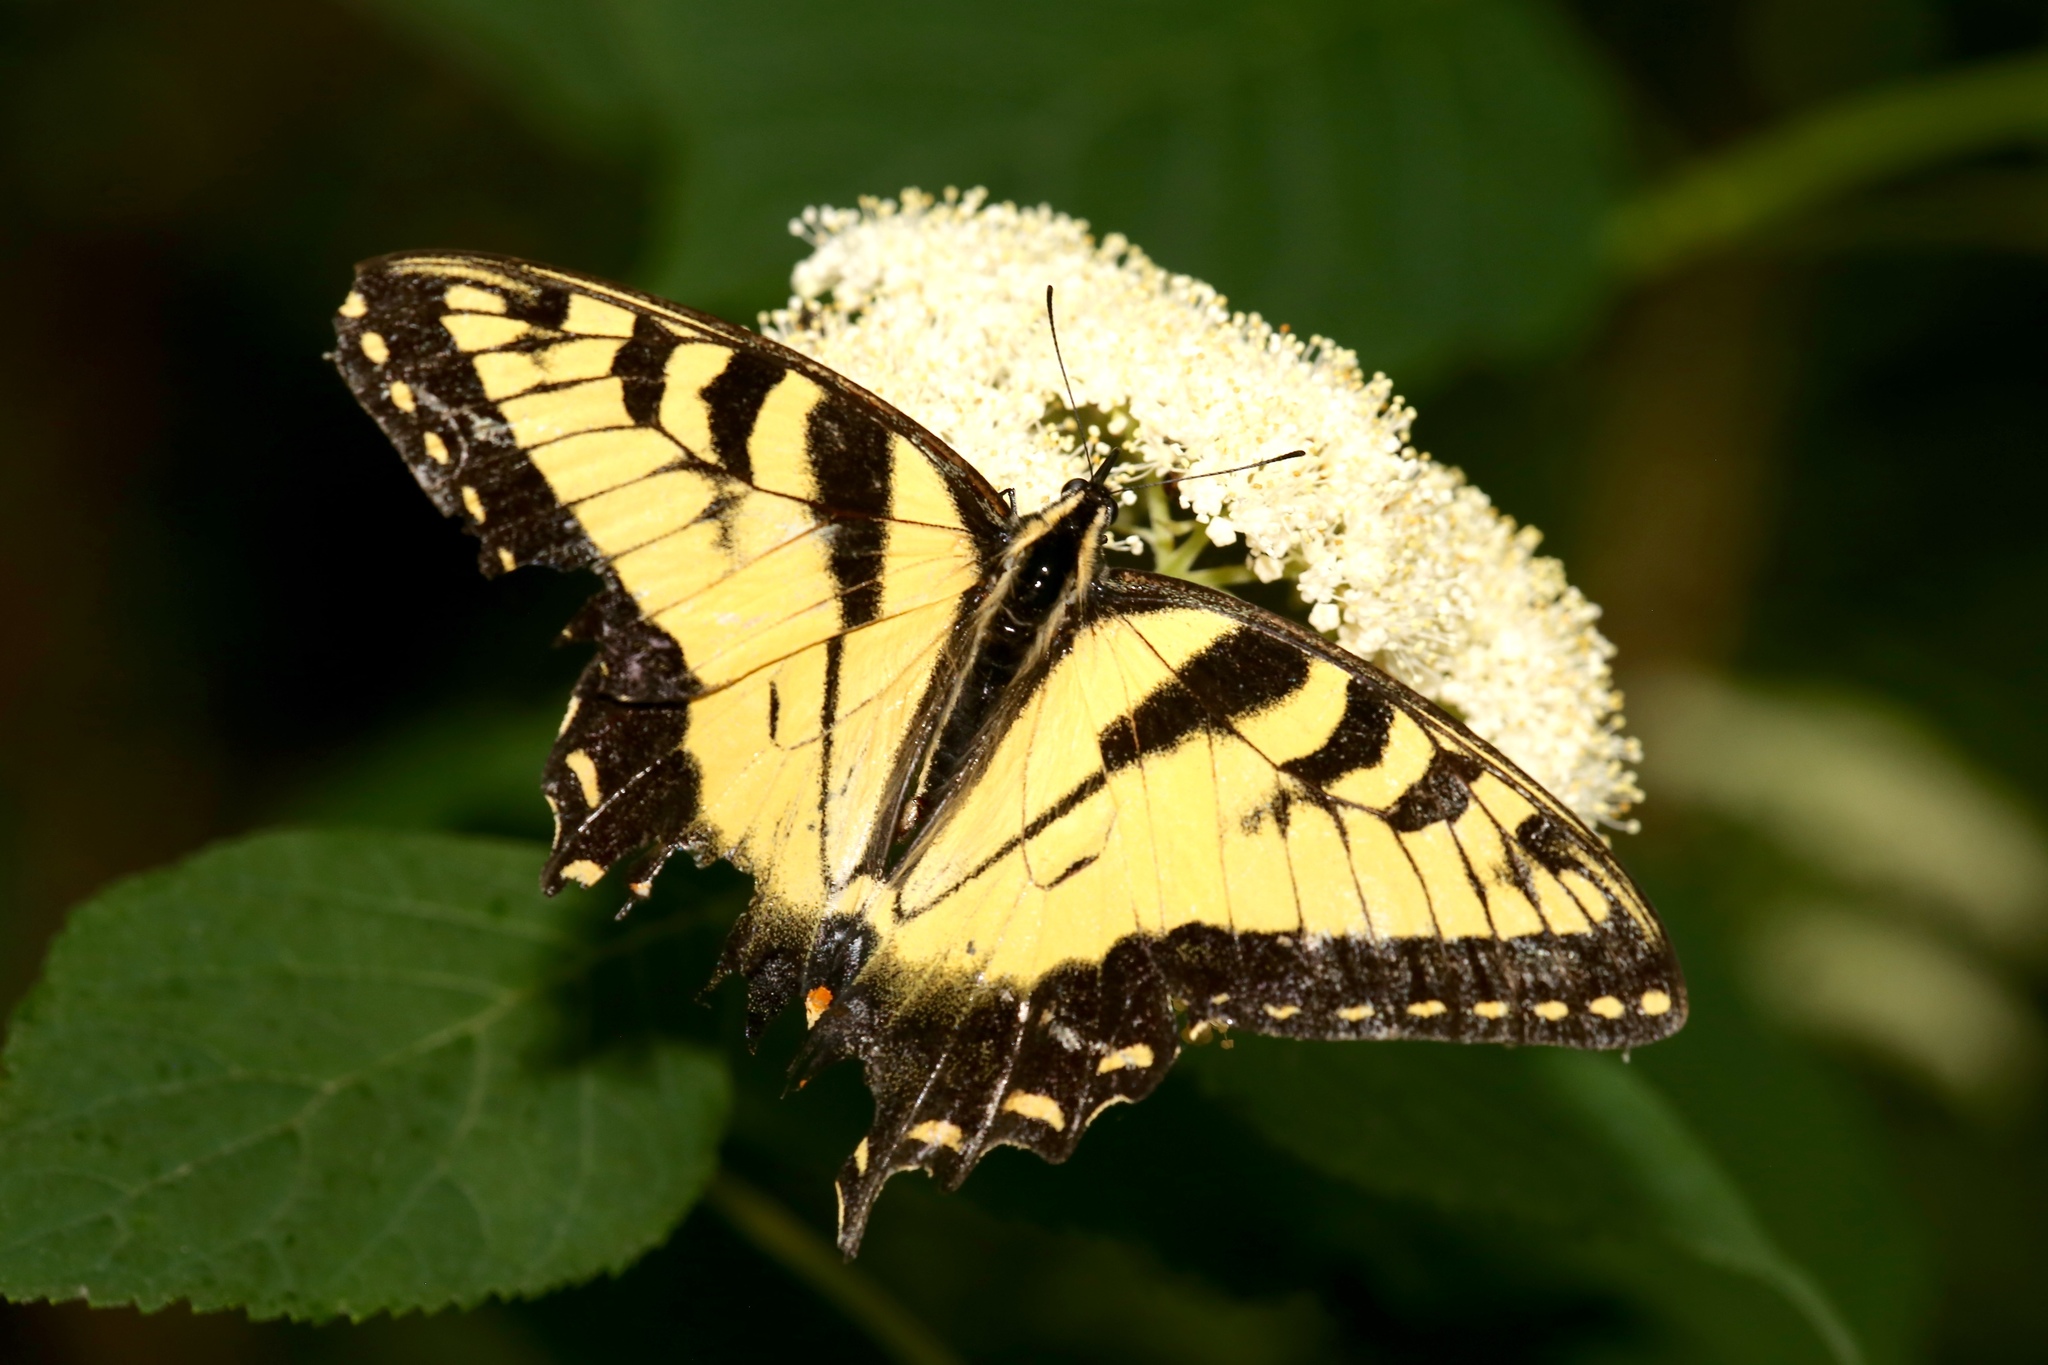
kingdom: Animalia
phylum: Arthropoda
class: Insecta
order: Lepidoptera
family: Papilionidae
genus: Papilio
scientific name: Papilio glaucus
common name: Tiger swallowtail
